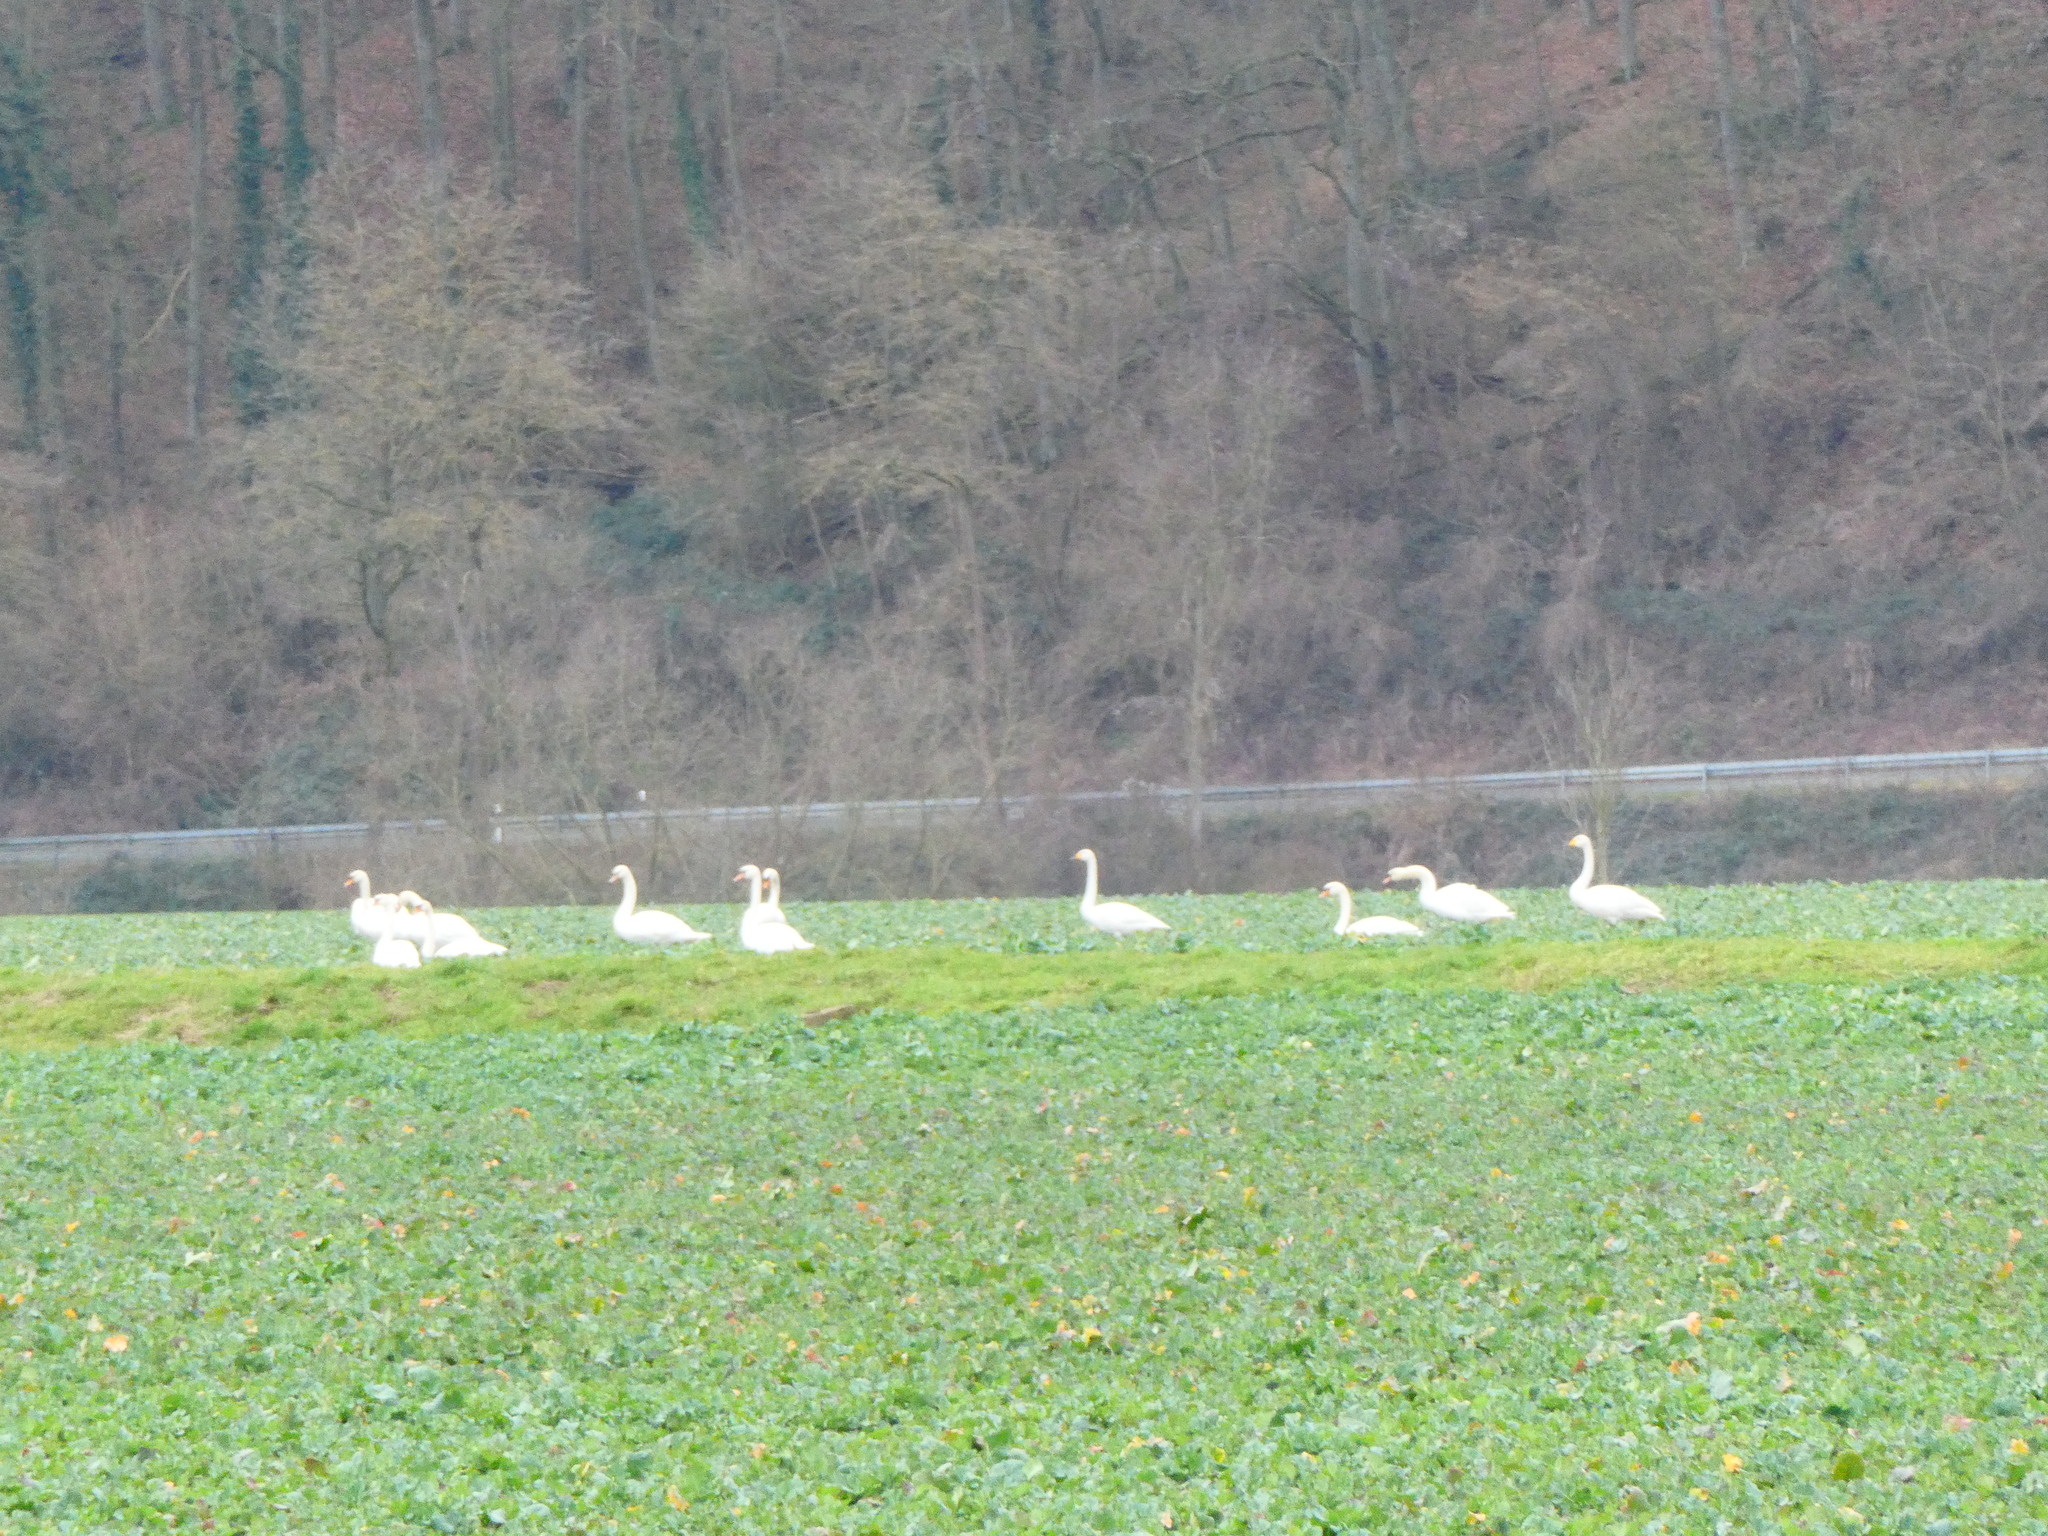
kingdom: Animalia
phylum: Chordata
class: Aves
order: Anseriformes
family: Anatidae
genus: Cygnus
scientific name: Cygnus cygnus
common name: Whooper swan
